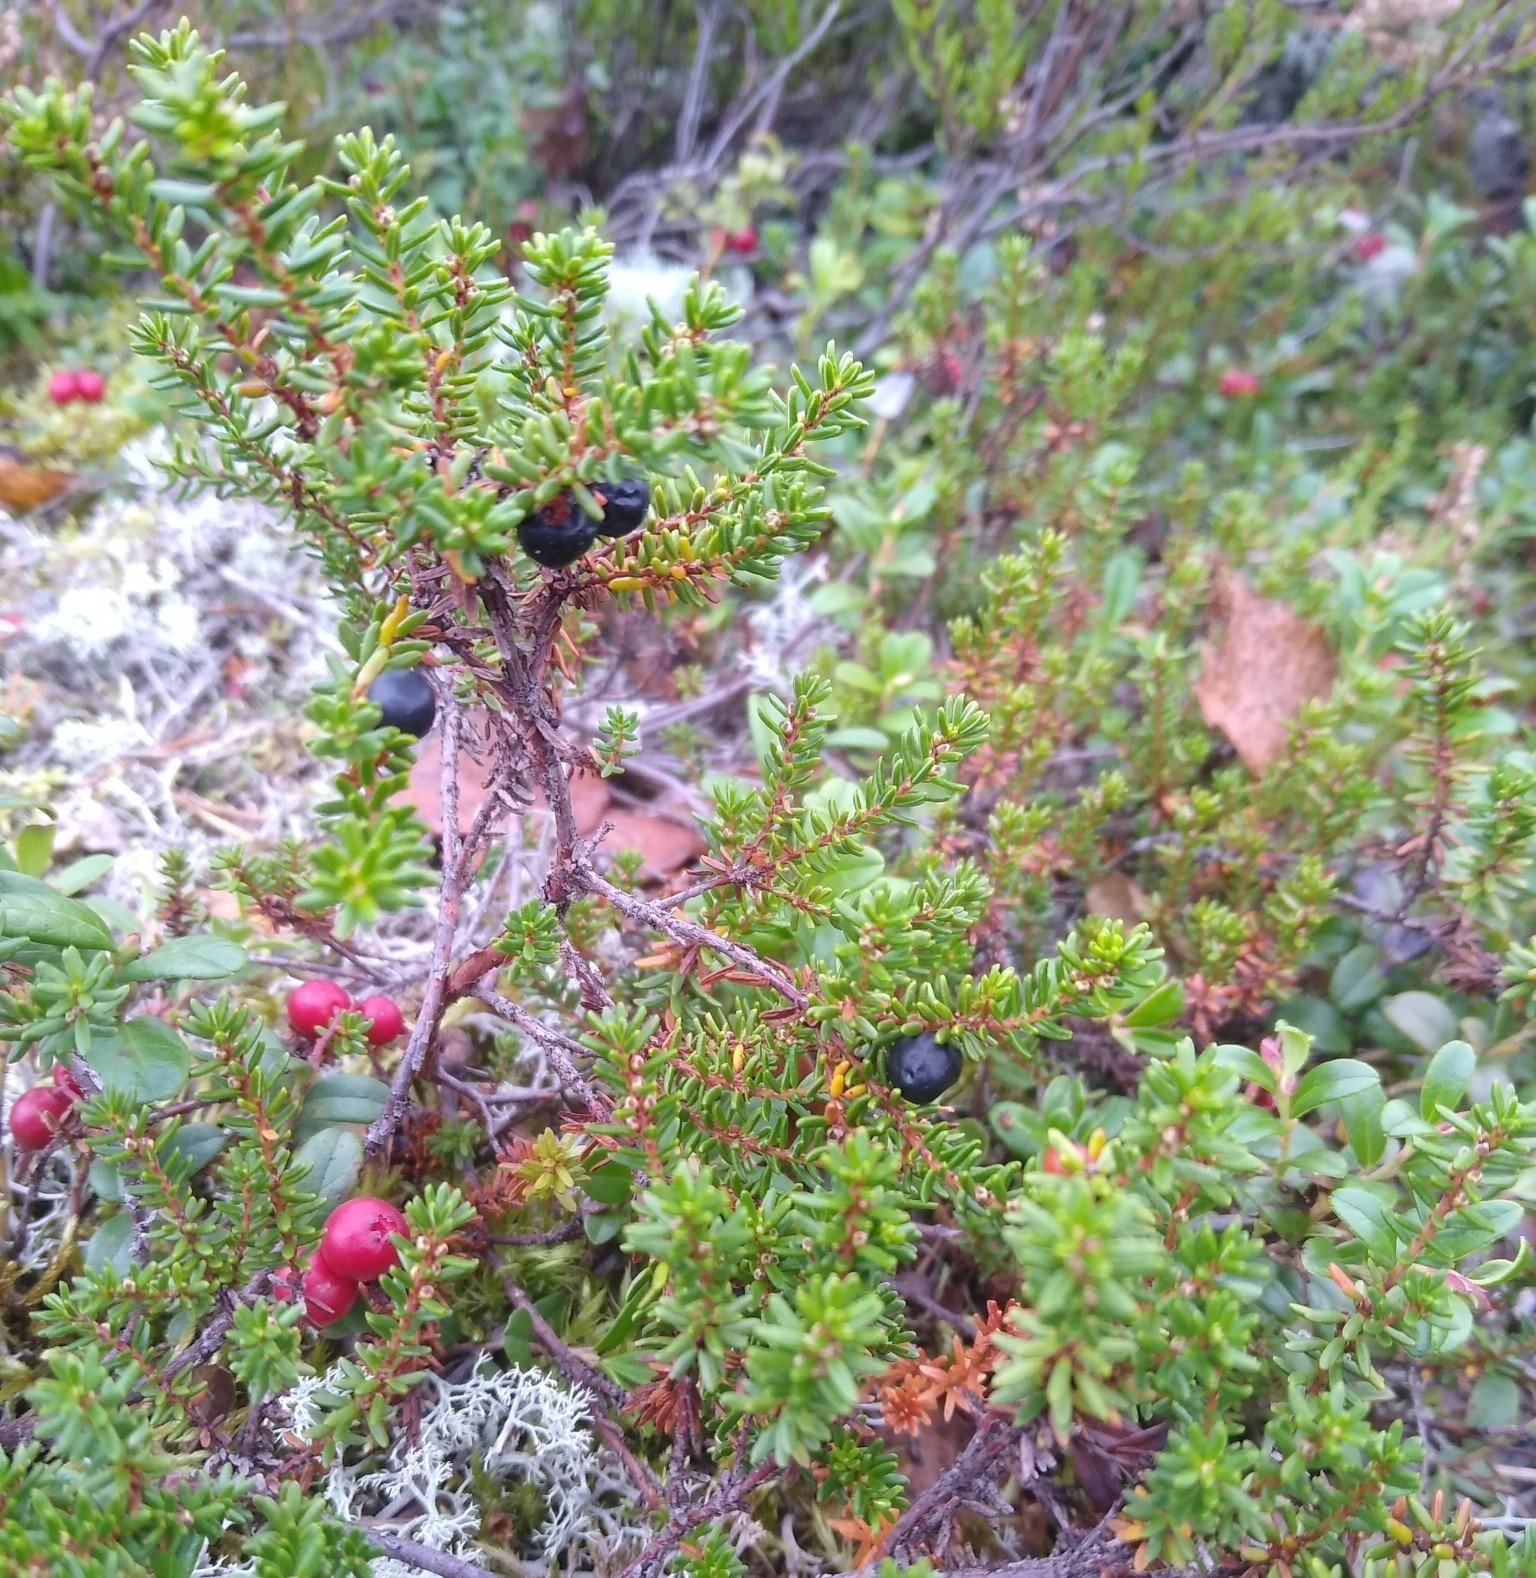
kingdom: Plantae
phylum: Tracheophyta
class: Magnoliopsida
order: Ericales
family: Ericaceae
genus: Empetrum
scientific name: Empetrum nigrum
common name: Black crowberry
